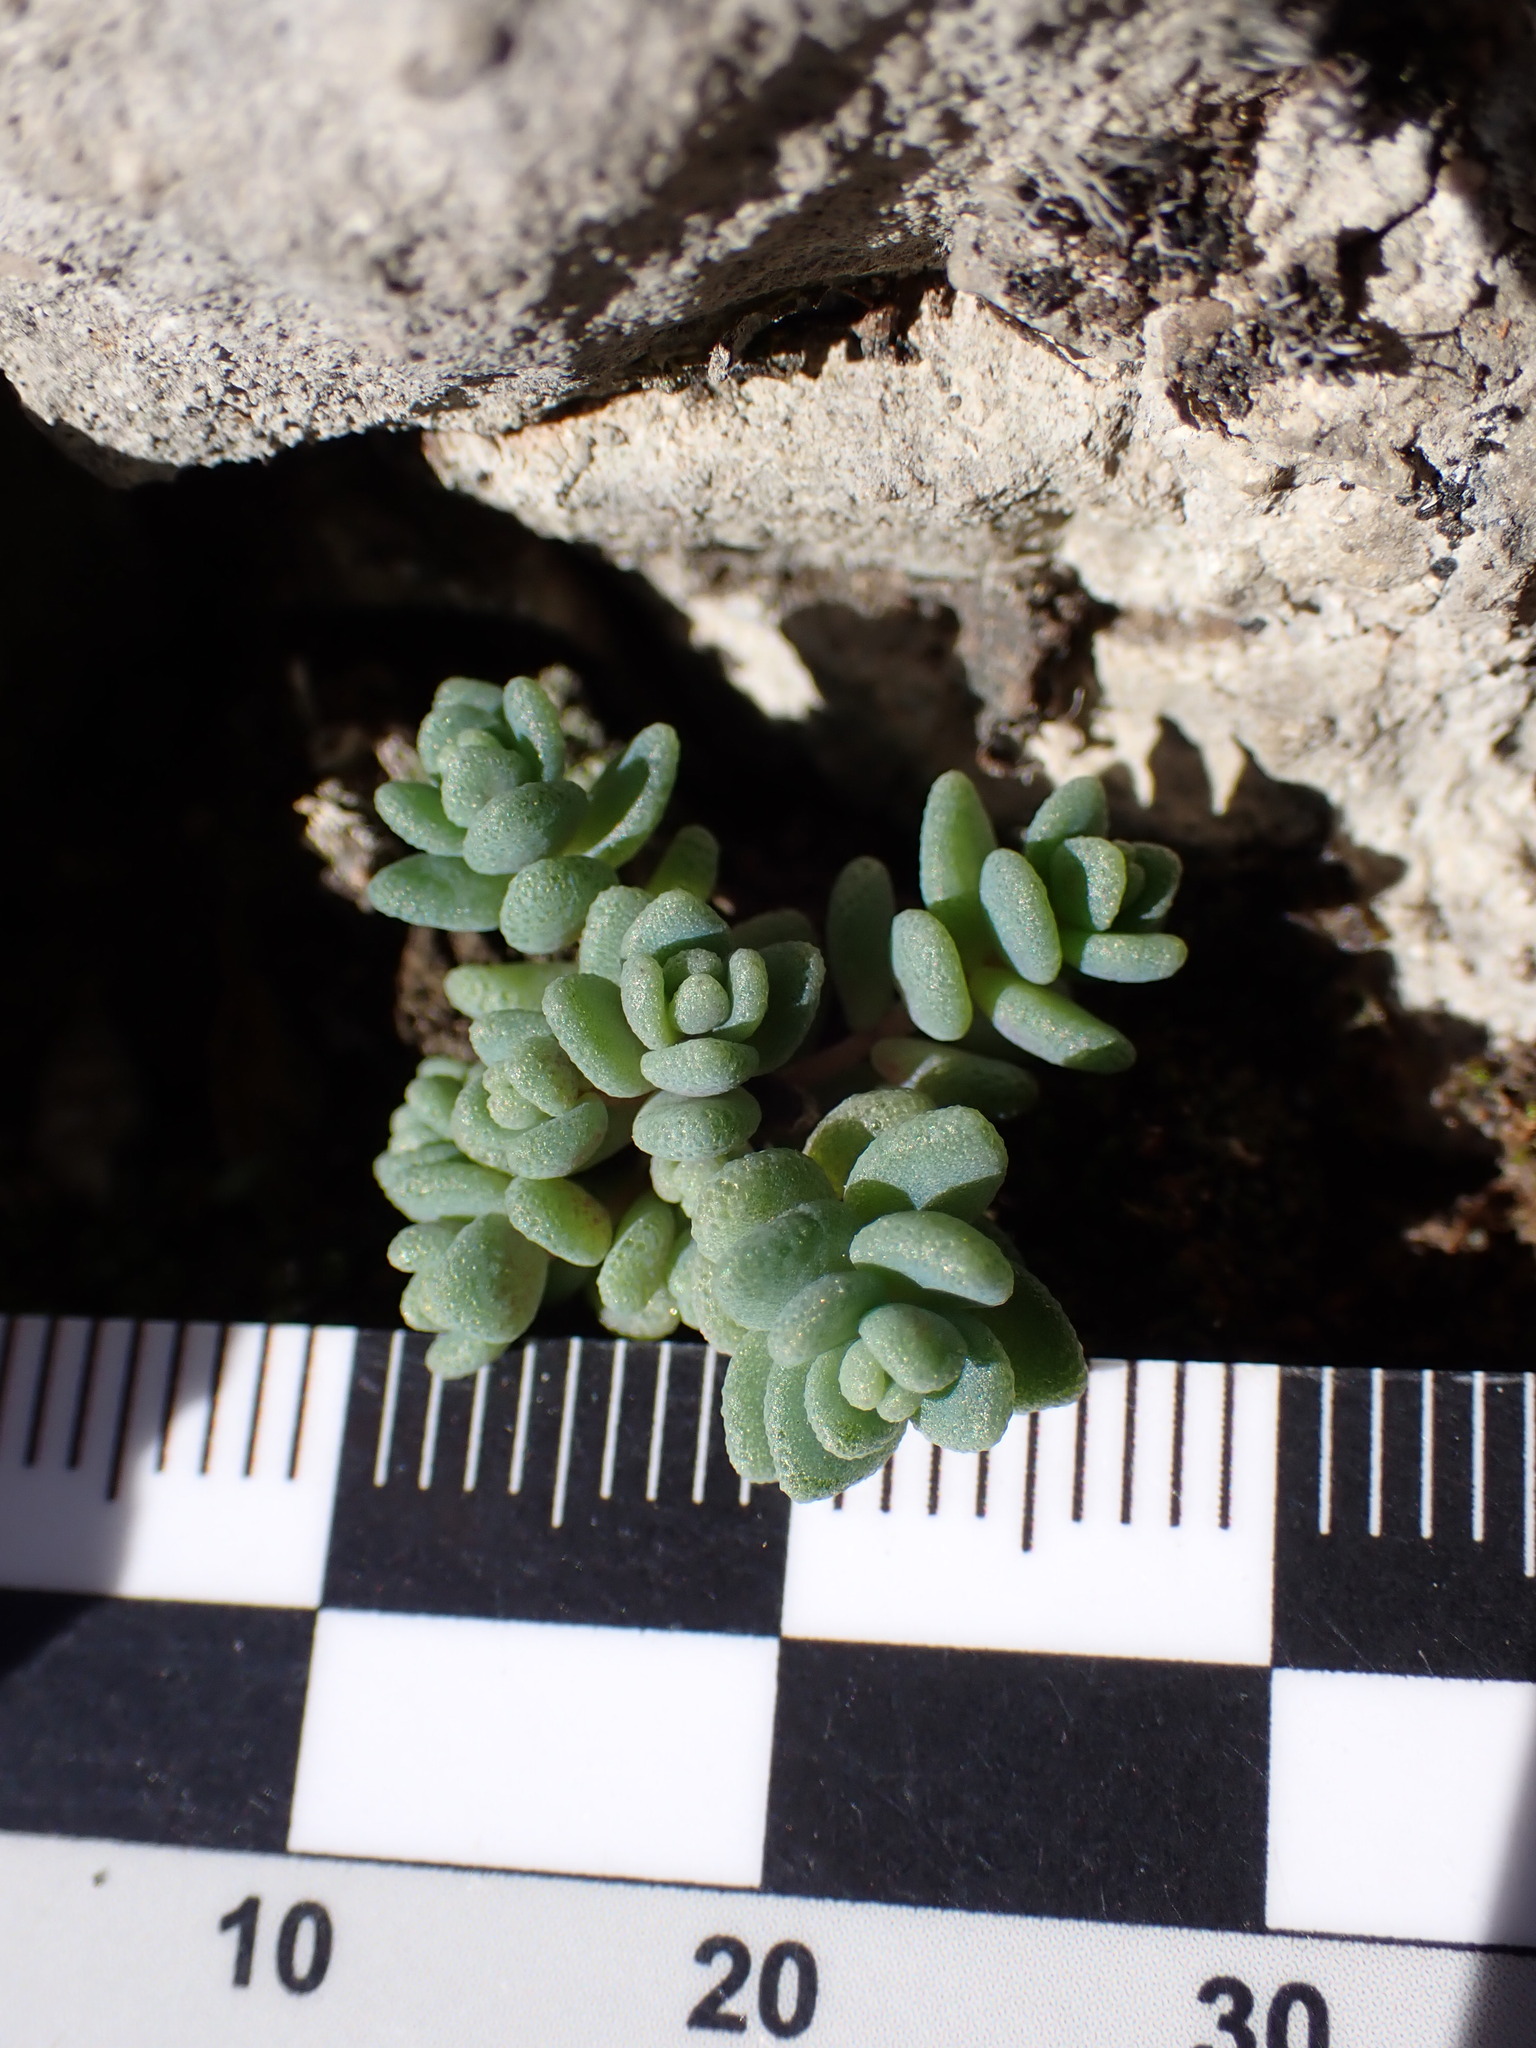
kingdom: Plantae
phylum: Tracheophyta
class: Magnoliopsida
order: Saxifragales
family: Crassulaceae
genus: Sedum
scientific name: Sedum dasyphyllum
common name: Thick-leaf stonecrop
